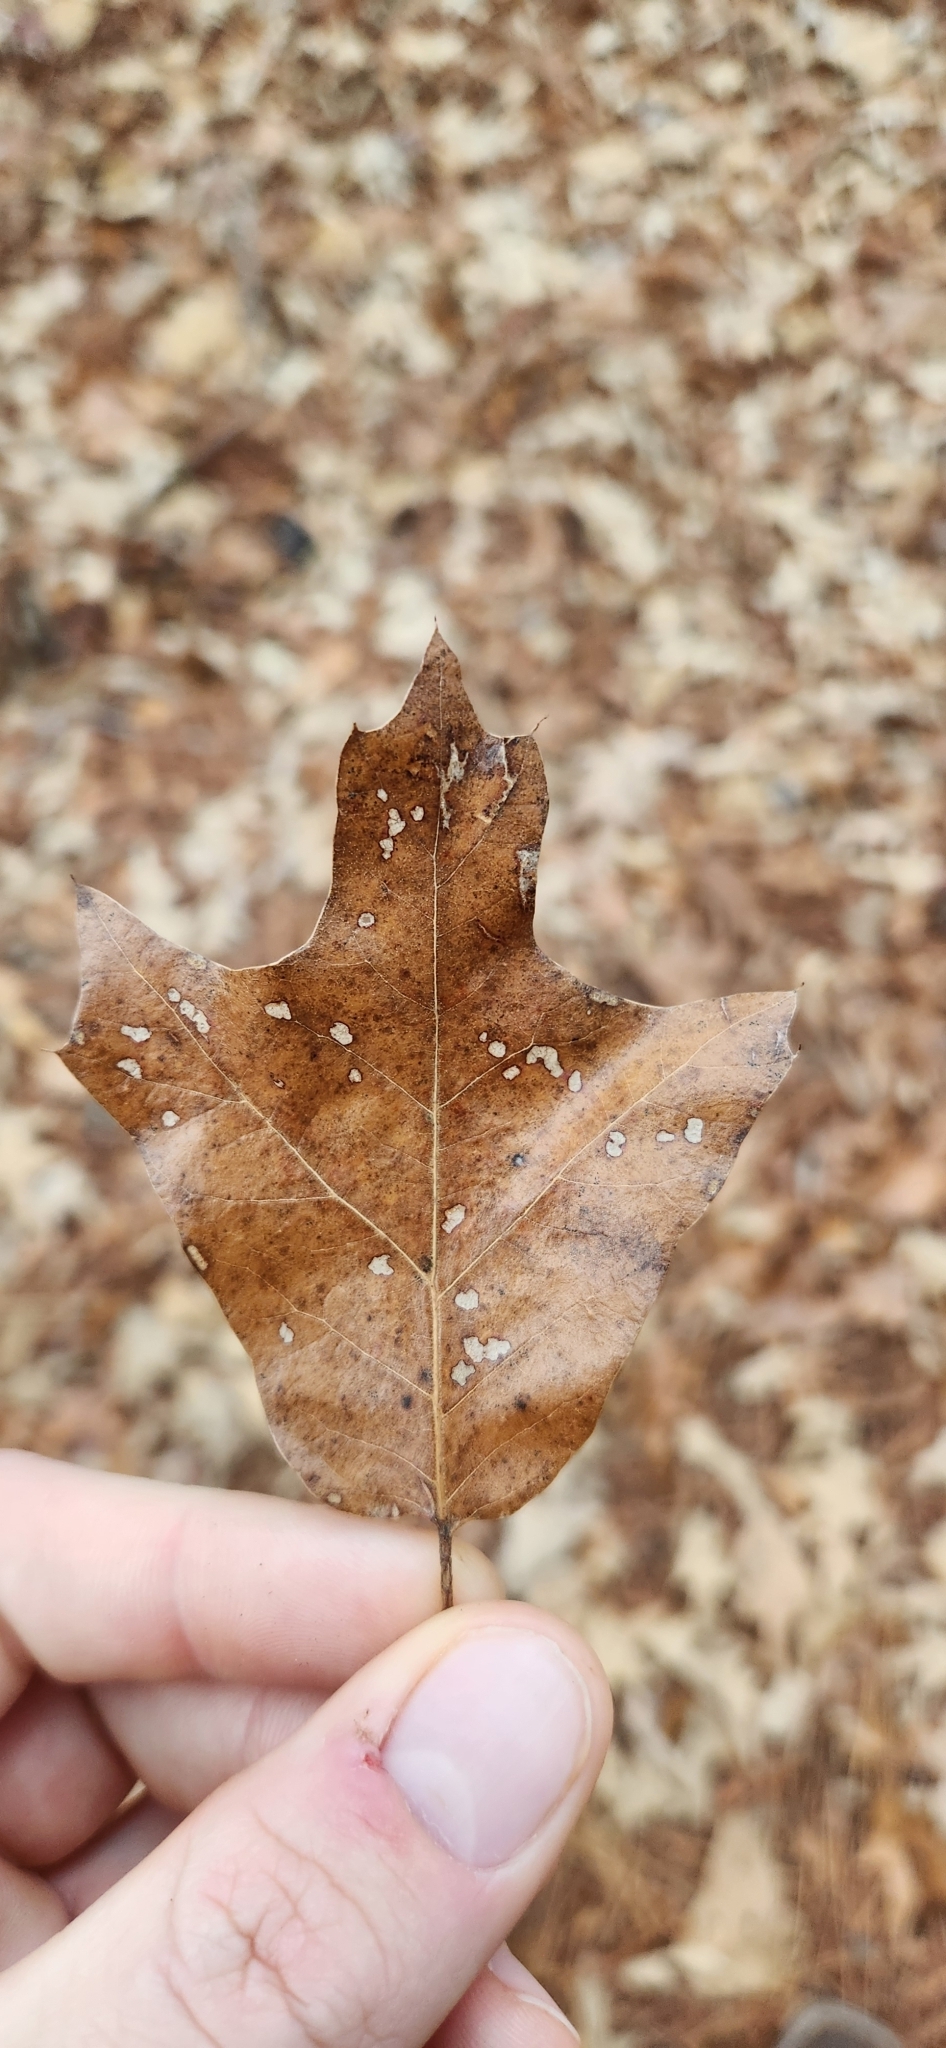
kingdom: Plantae
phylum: Tracheophyta
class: Magnoliopsida
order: Fagales
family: Fagaceae
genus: Quercus
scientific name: Quercus falcata
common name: Southern red oak
